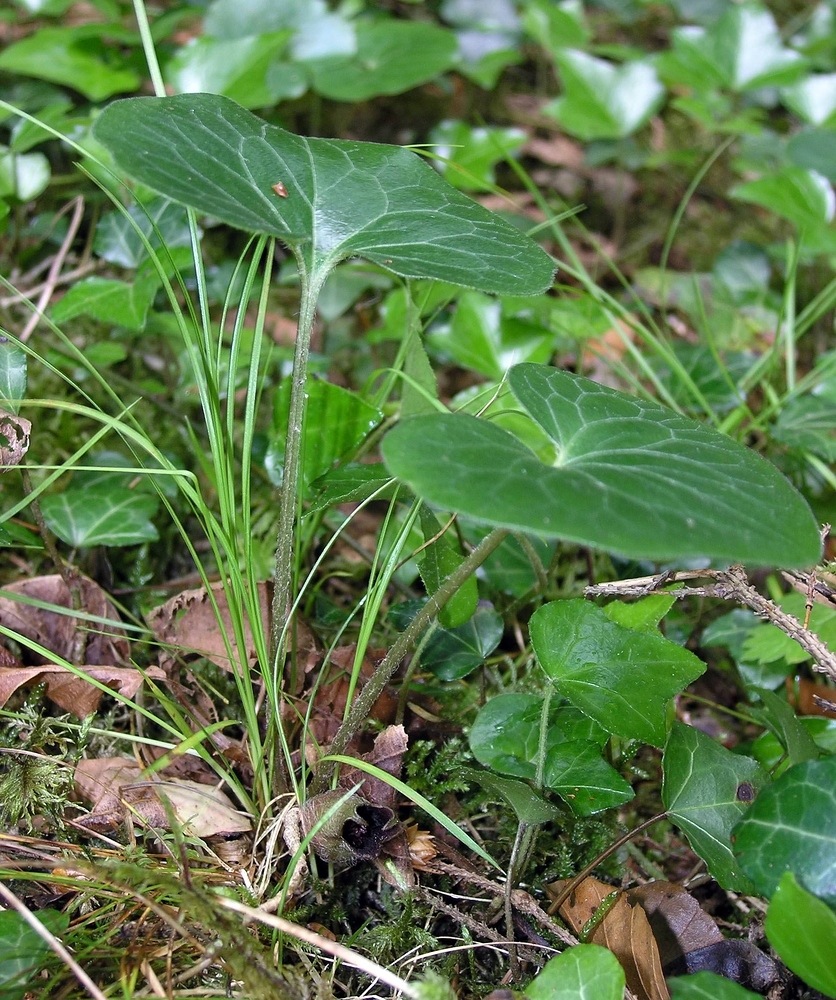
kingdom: Plantae
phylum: Tracheophyta
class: Magnoliopsida
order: Piperales
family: Aristolochiaceae
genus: Asarum
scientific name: Asarum europaeum
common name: Asarabacca
